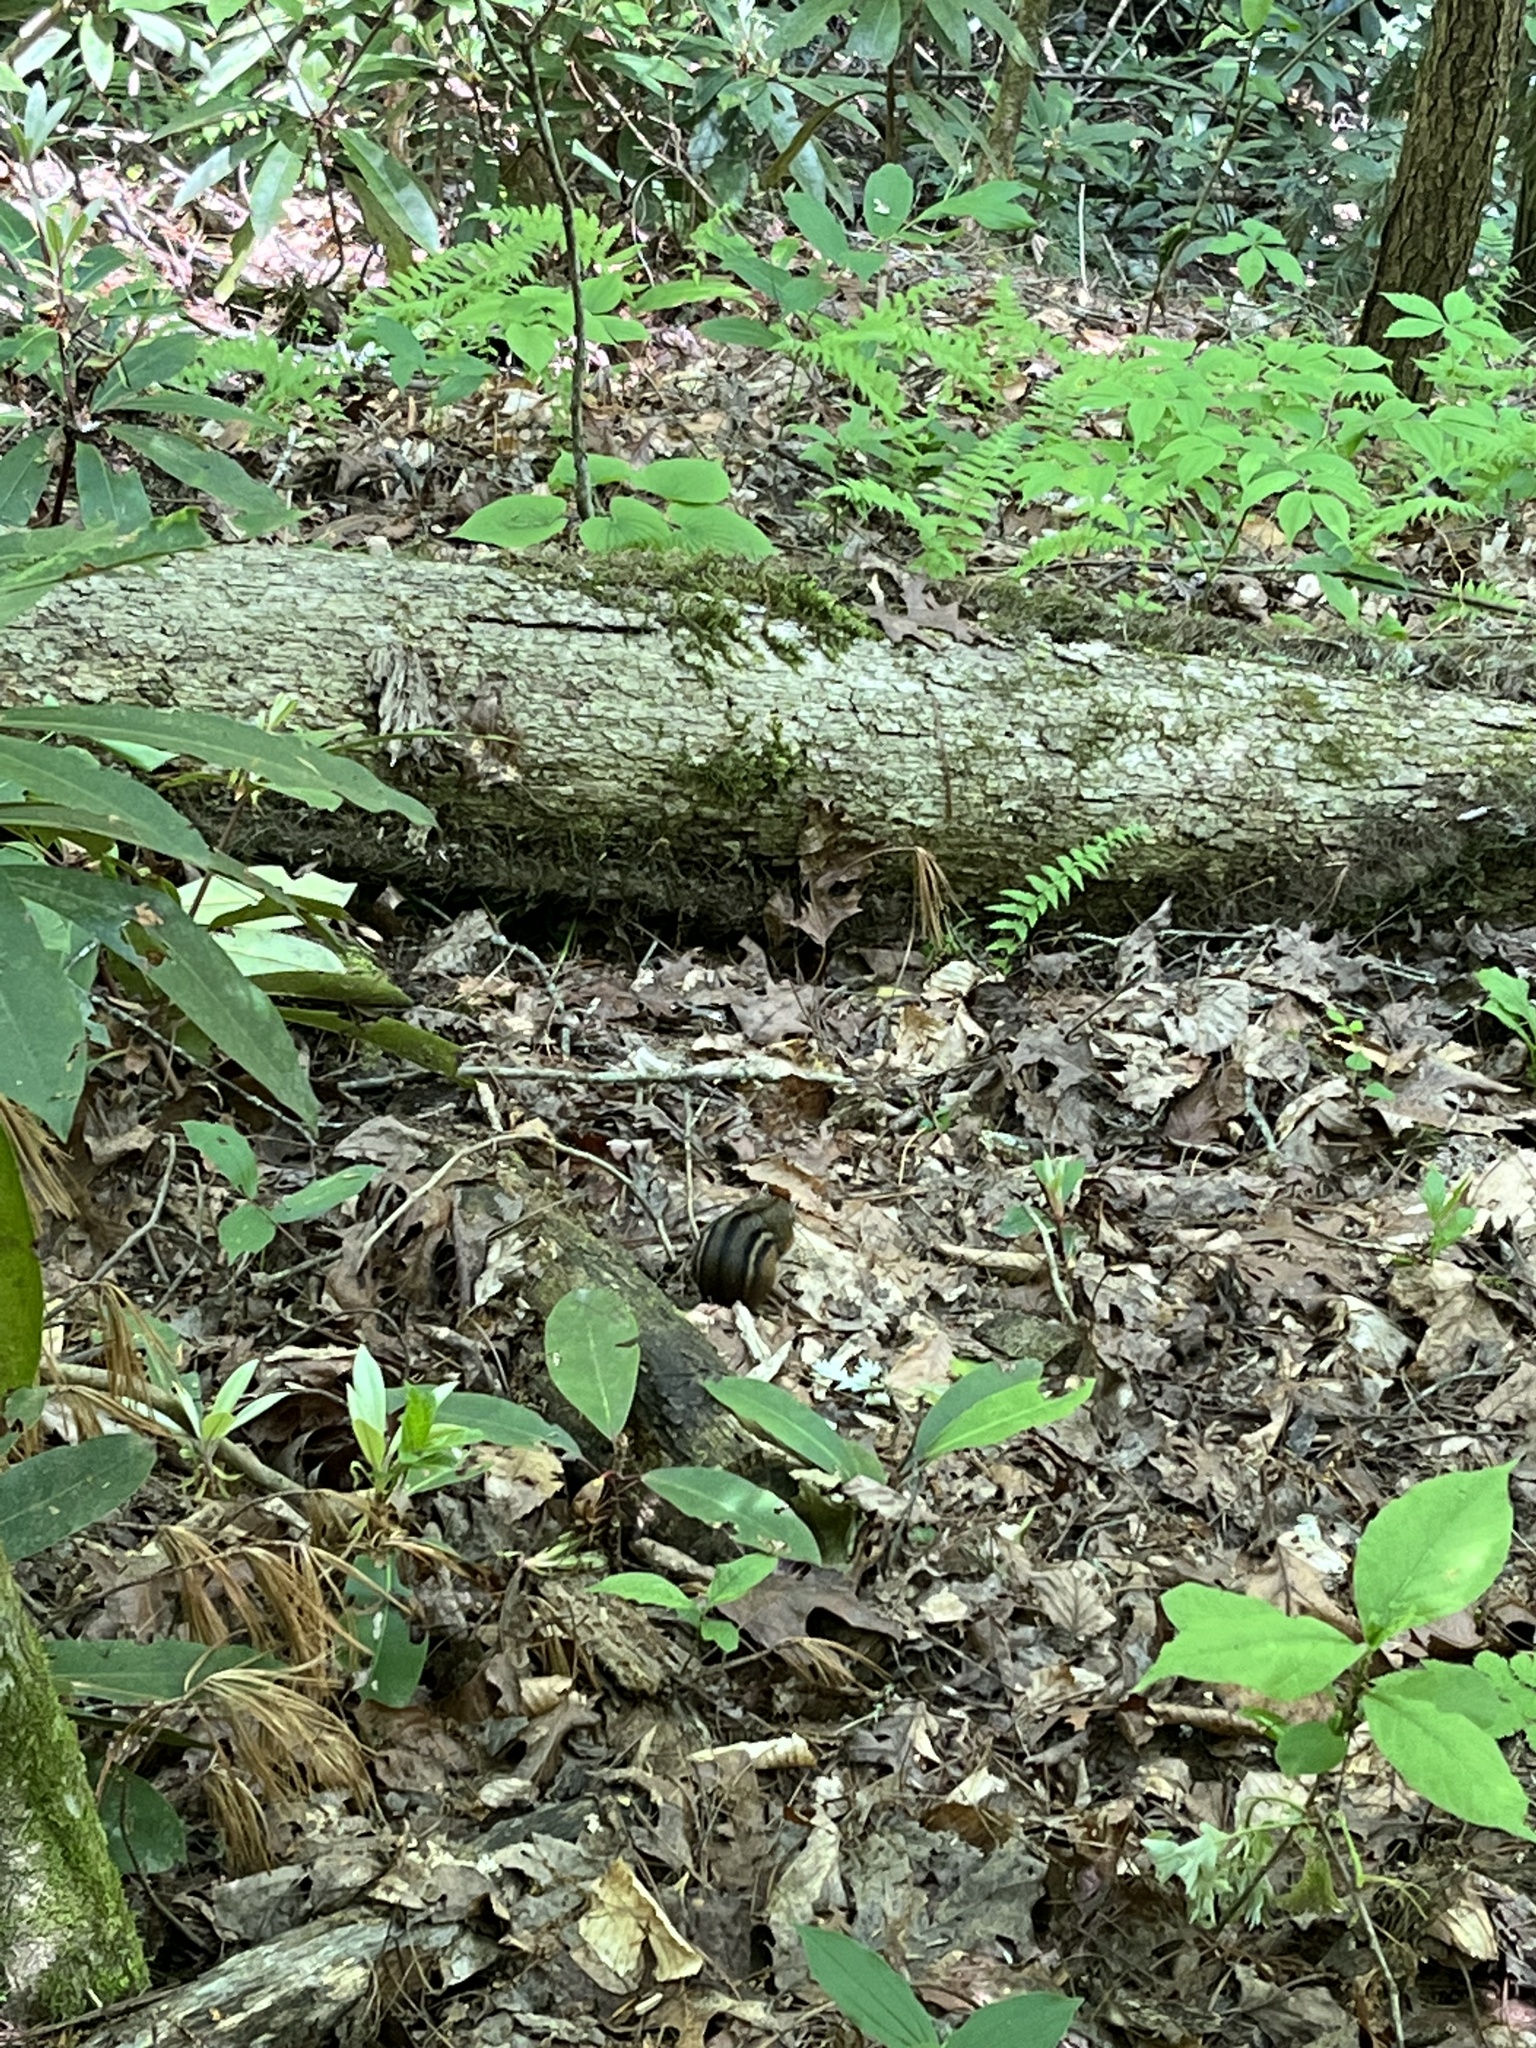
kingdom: Animalia
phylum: Chordata
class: Mammalia
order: Rodentia
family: Sciuridae
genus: Tamias
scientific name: Tamias striatus
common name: Eastern chipmunk
